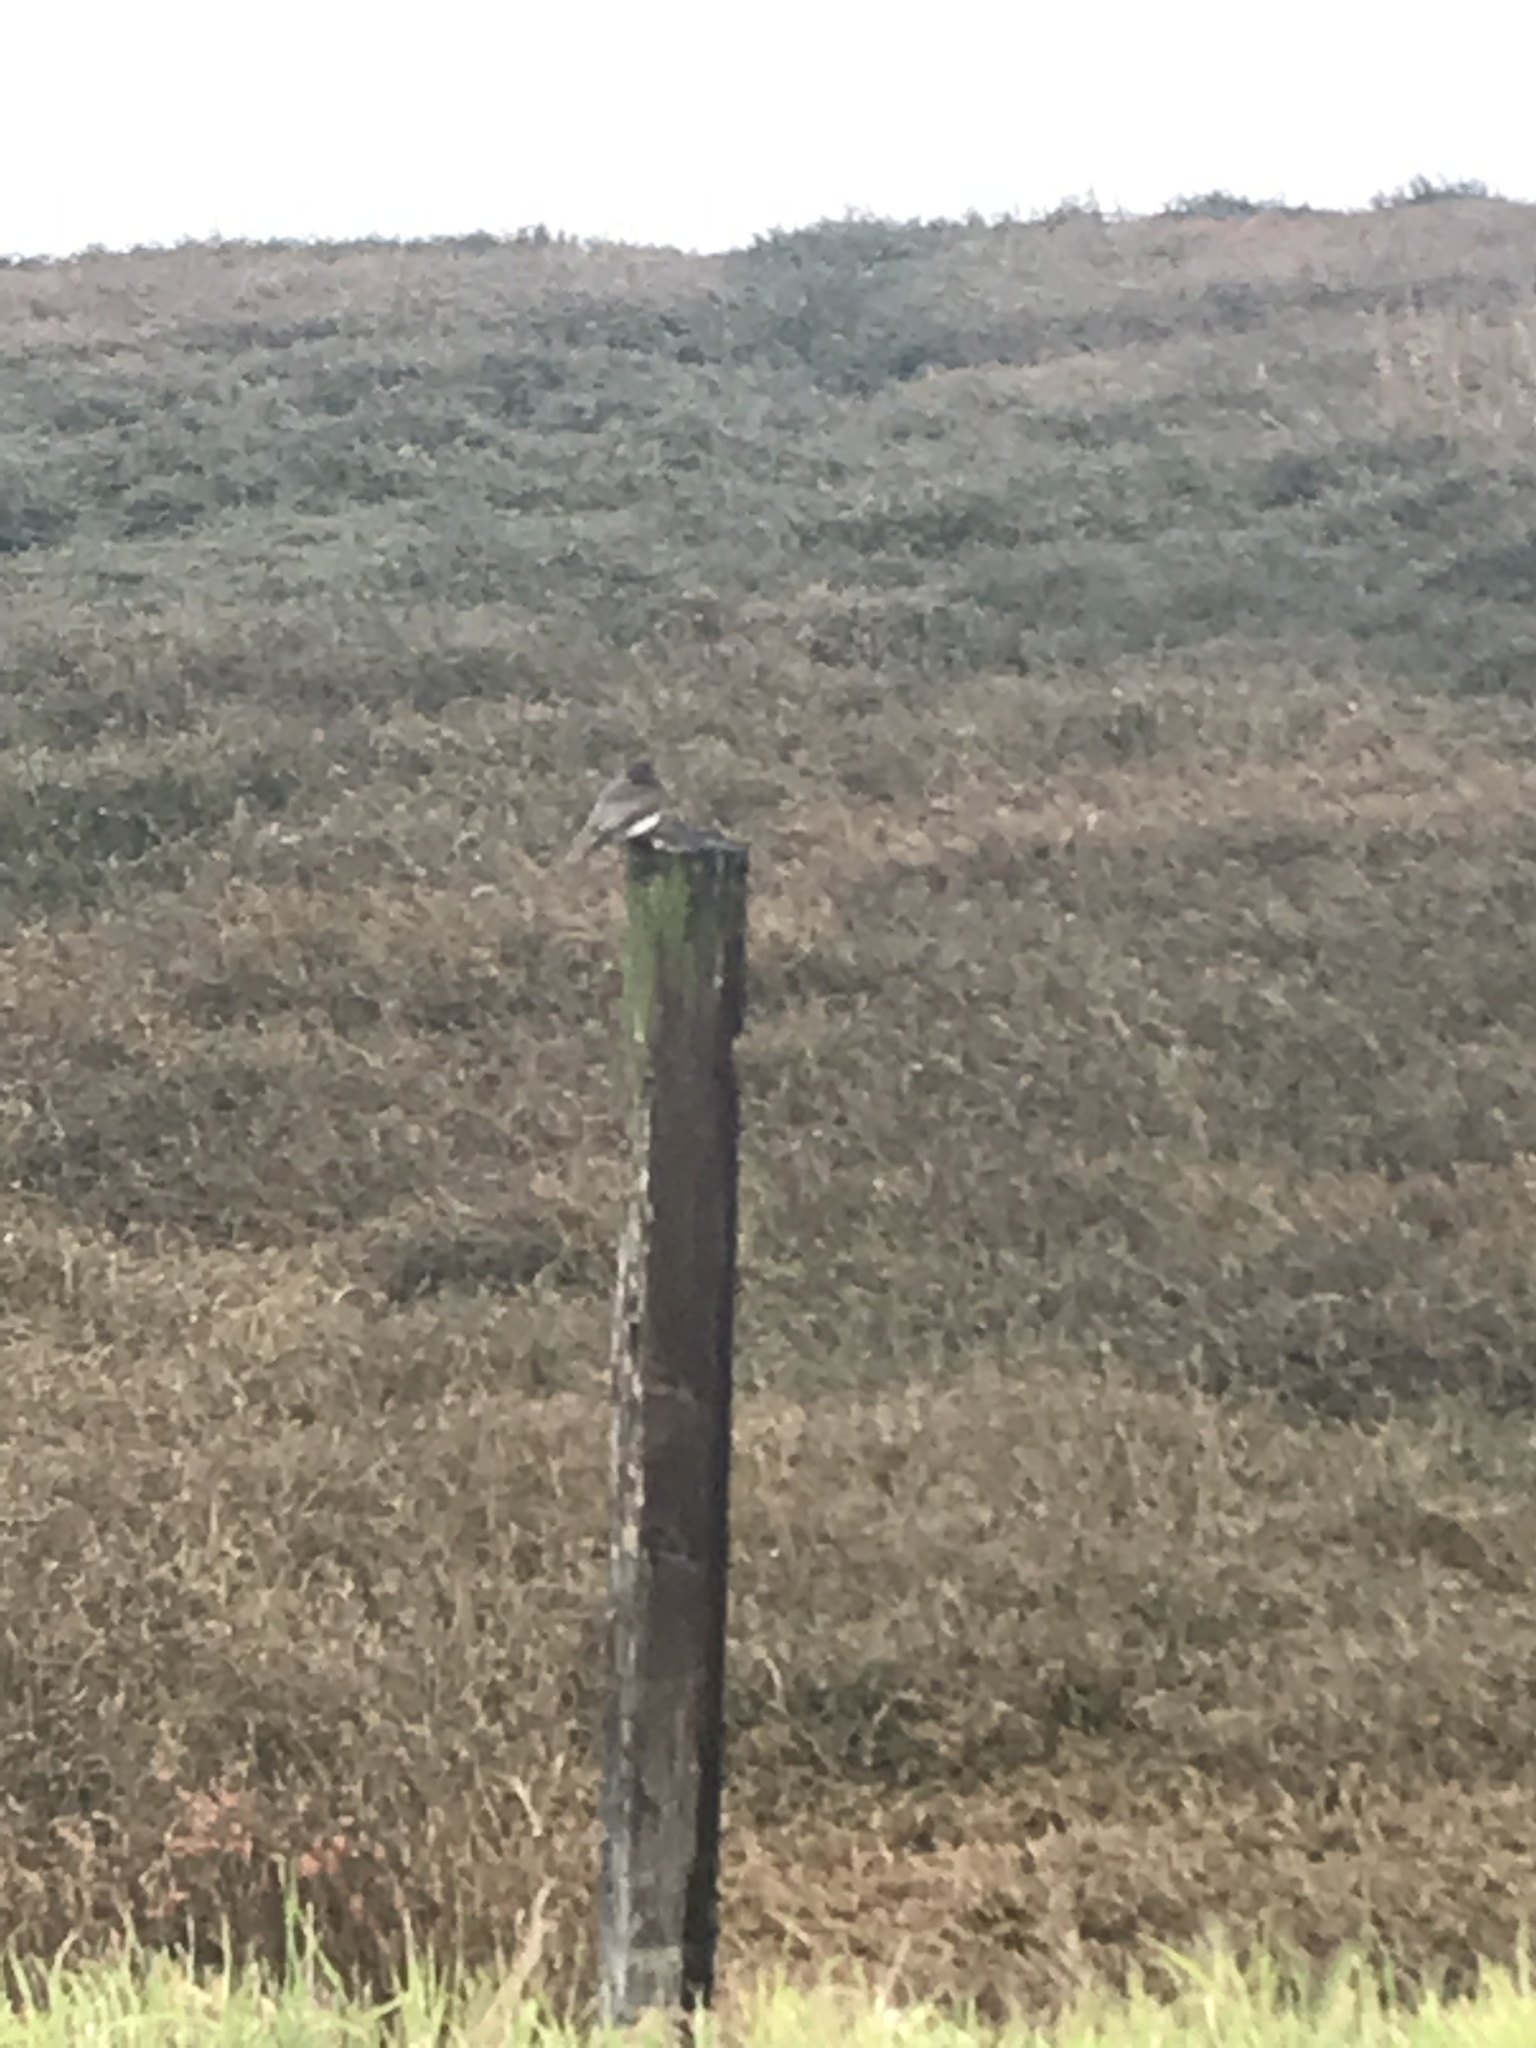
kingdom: Animalia
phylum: Chordata
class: Aves
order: Passeriformes
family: Tyrannidae
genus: Sayornis
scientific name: Sayornis nigricans
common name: Black phoebe
